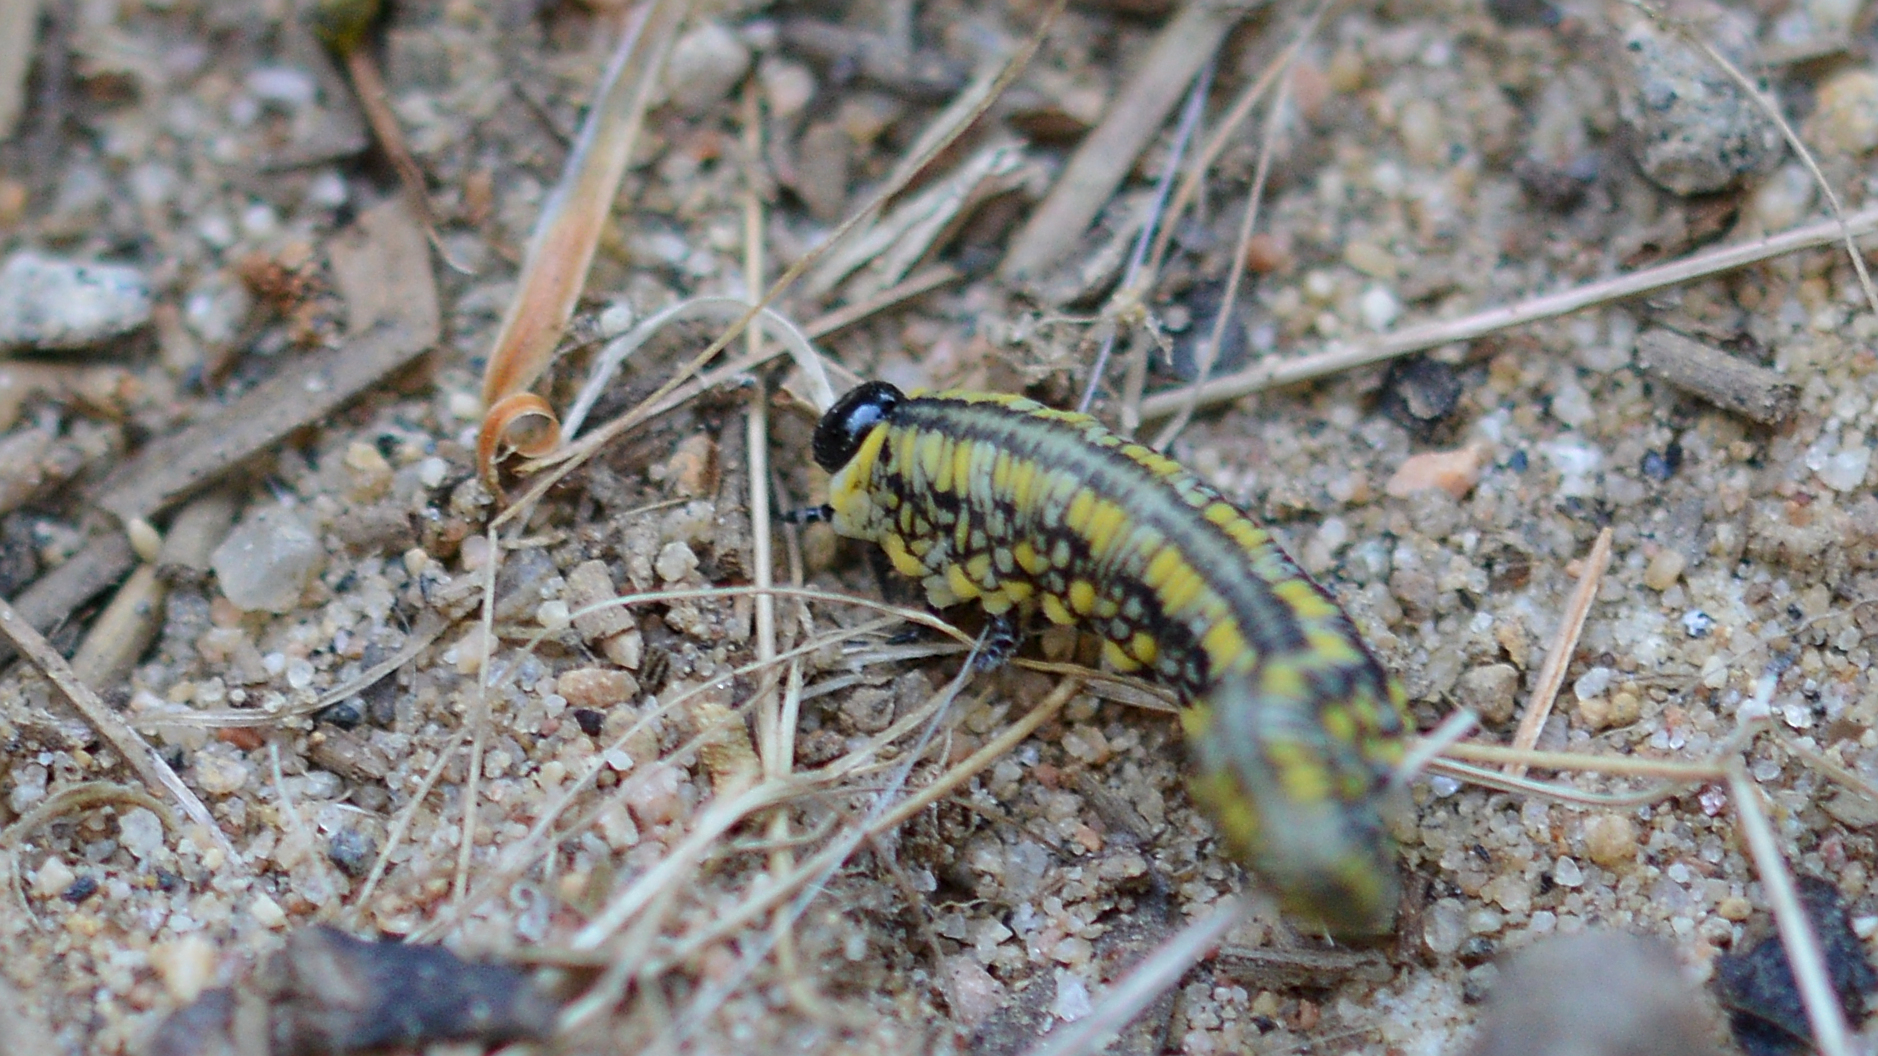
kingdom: Animalia
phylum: Arthropoda
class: Insecta
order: Hymenoptera
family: Diprionidae
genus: Diprion
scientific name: Diprion similis
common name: Pine sawfly
